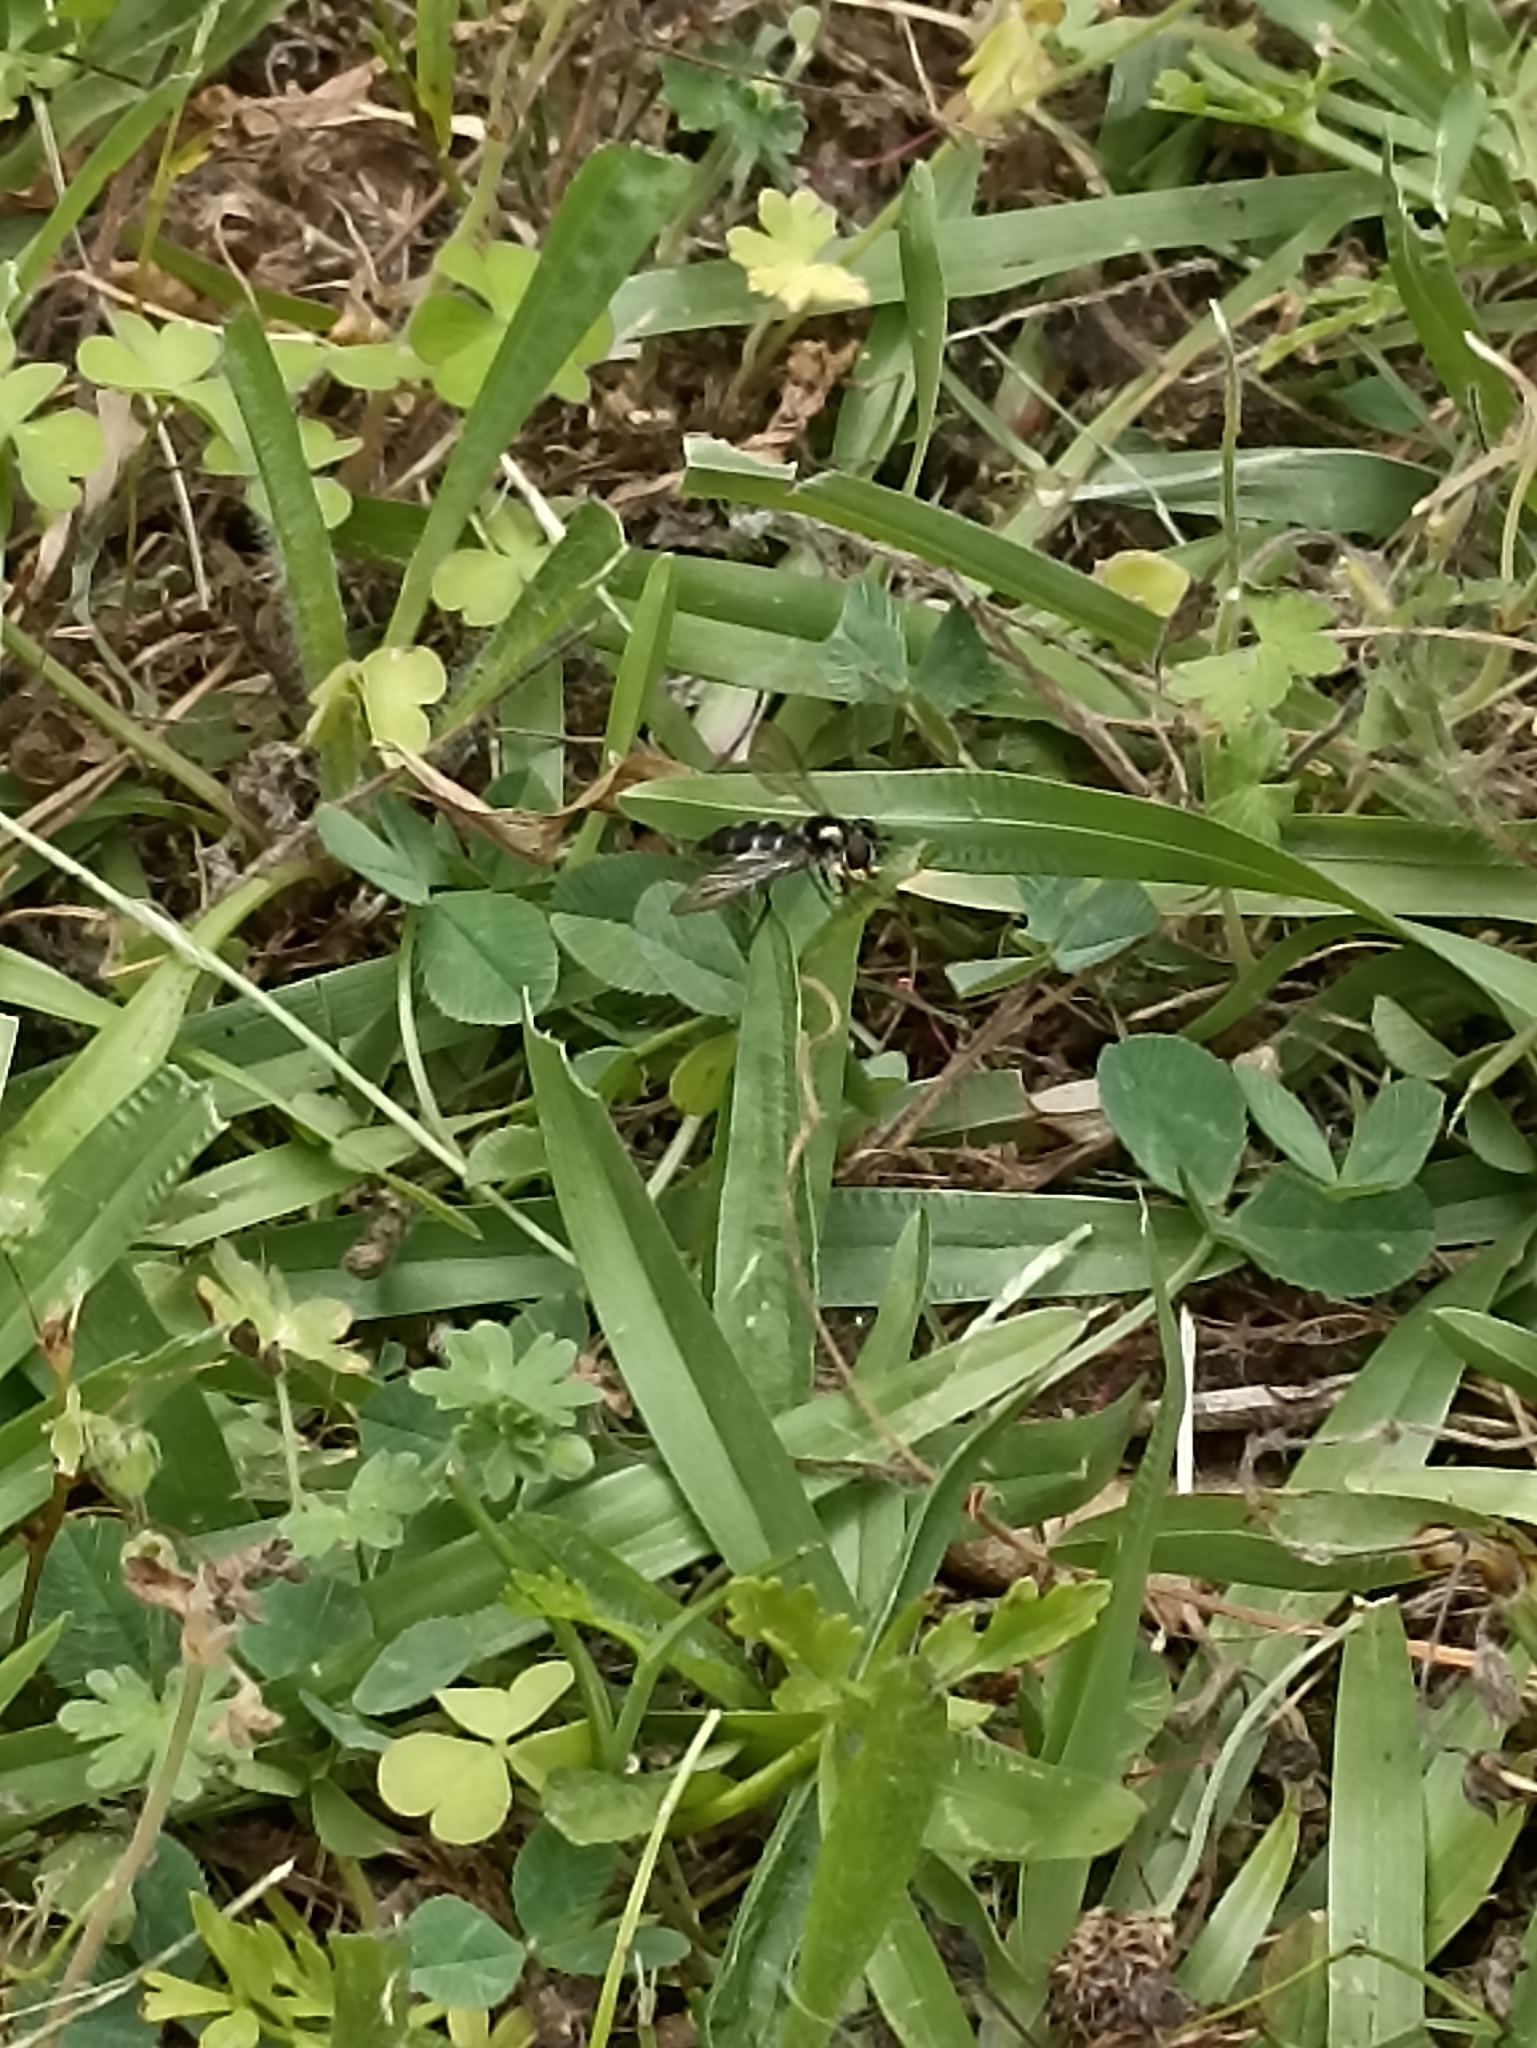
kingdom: Animalia
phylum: Arthropoda
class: Insecta
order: Diptera
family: Syrphidae
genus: Melangyna
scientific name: Melangyna novaezelandiae
